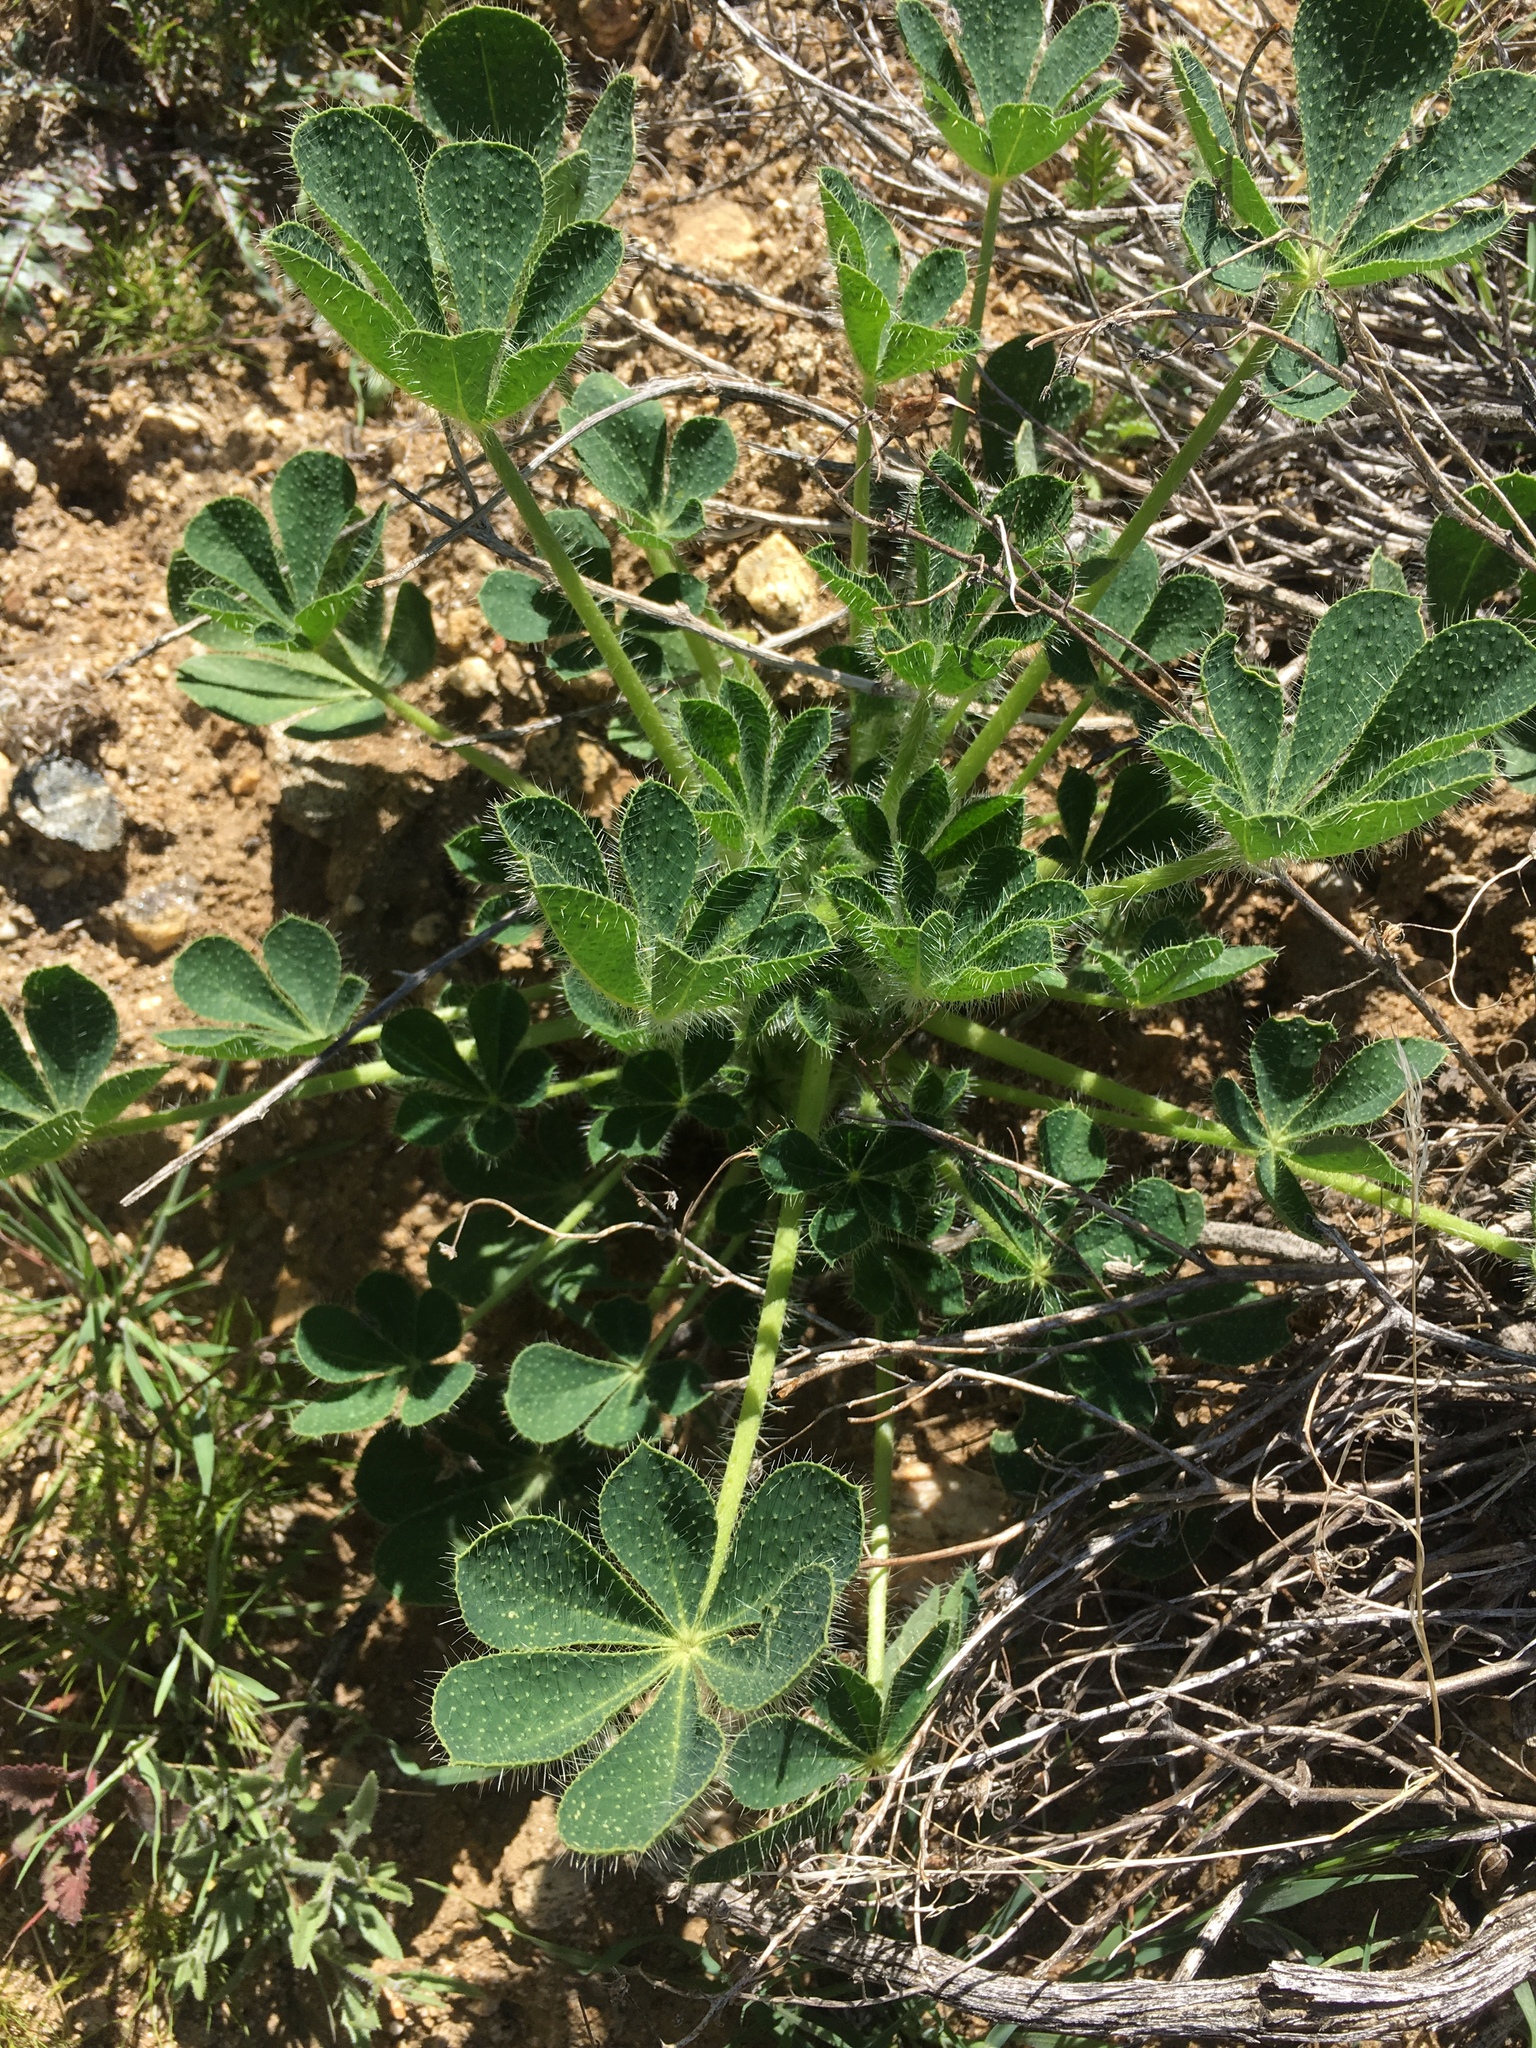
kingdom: Plantae
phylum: Tracheophyta
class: Magnoliopsida
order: Fabales
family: Fabaceae
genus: Lupinus
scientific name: Lupinus hirsutissimus
